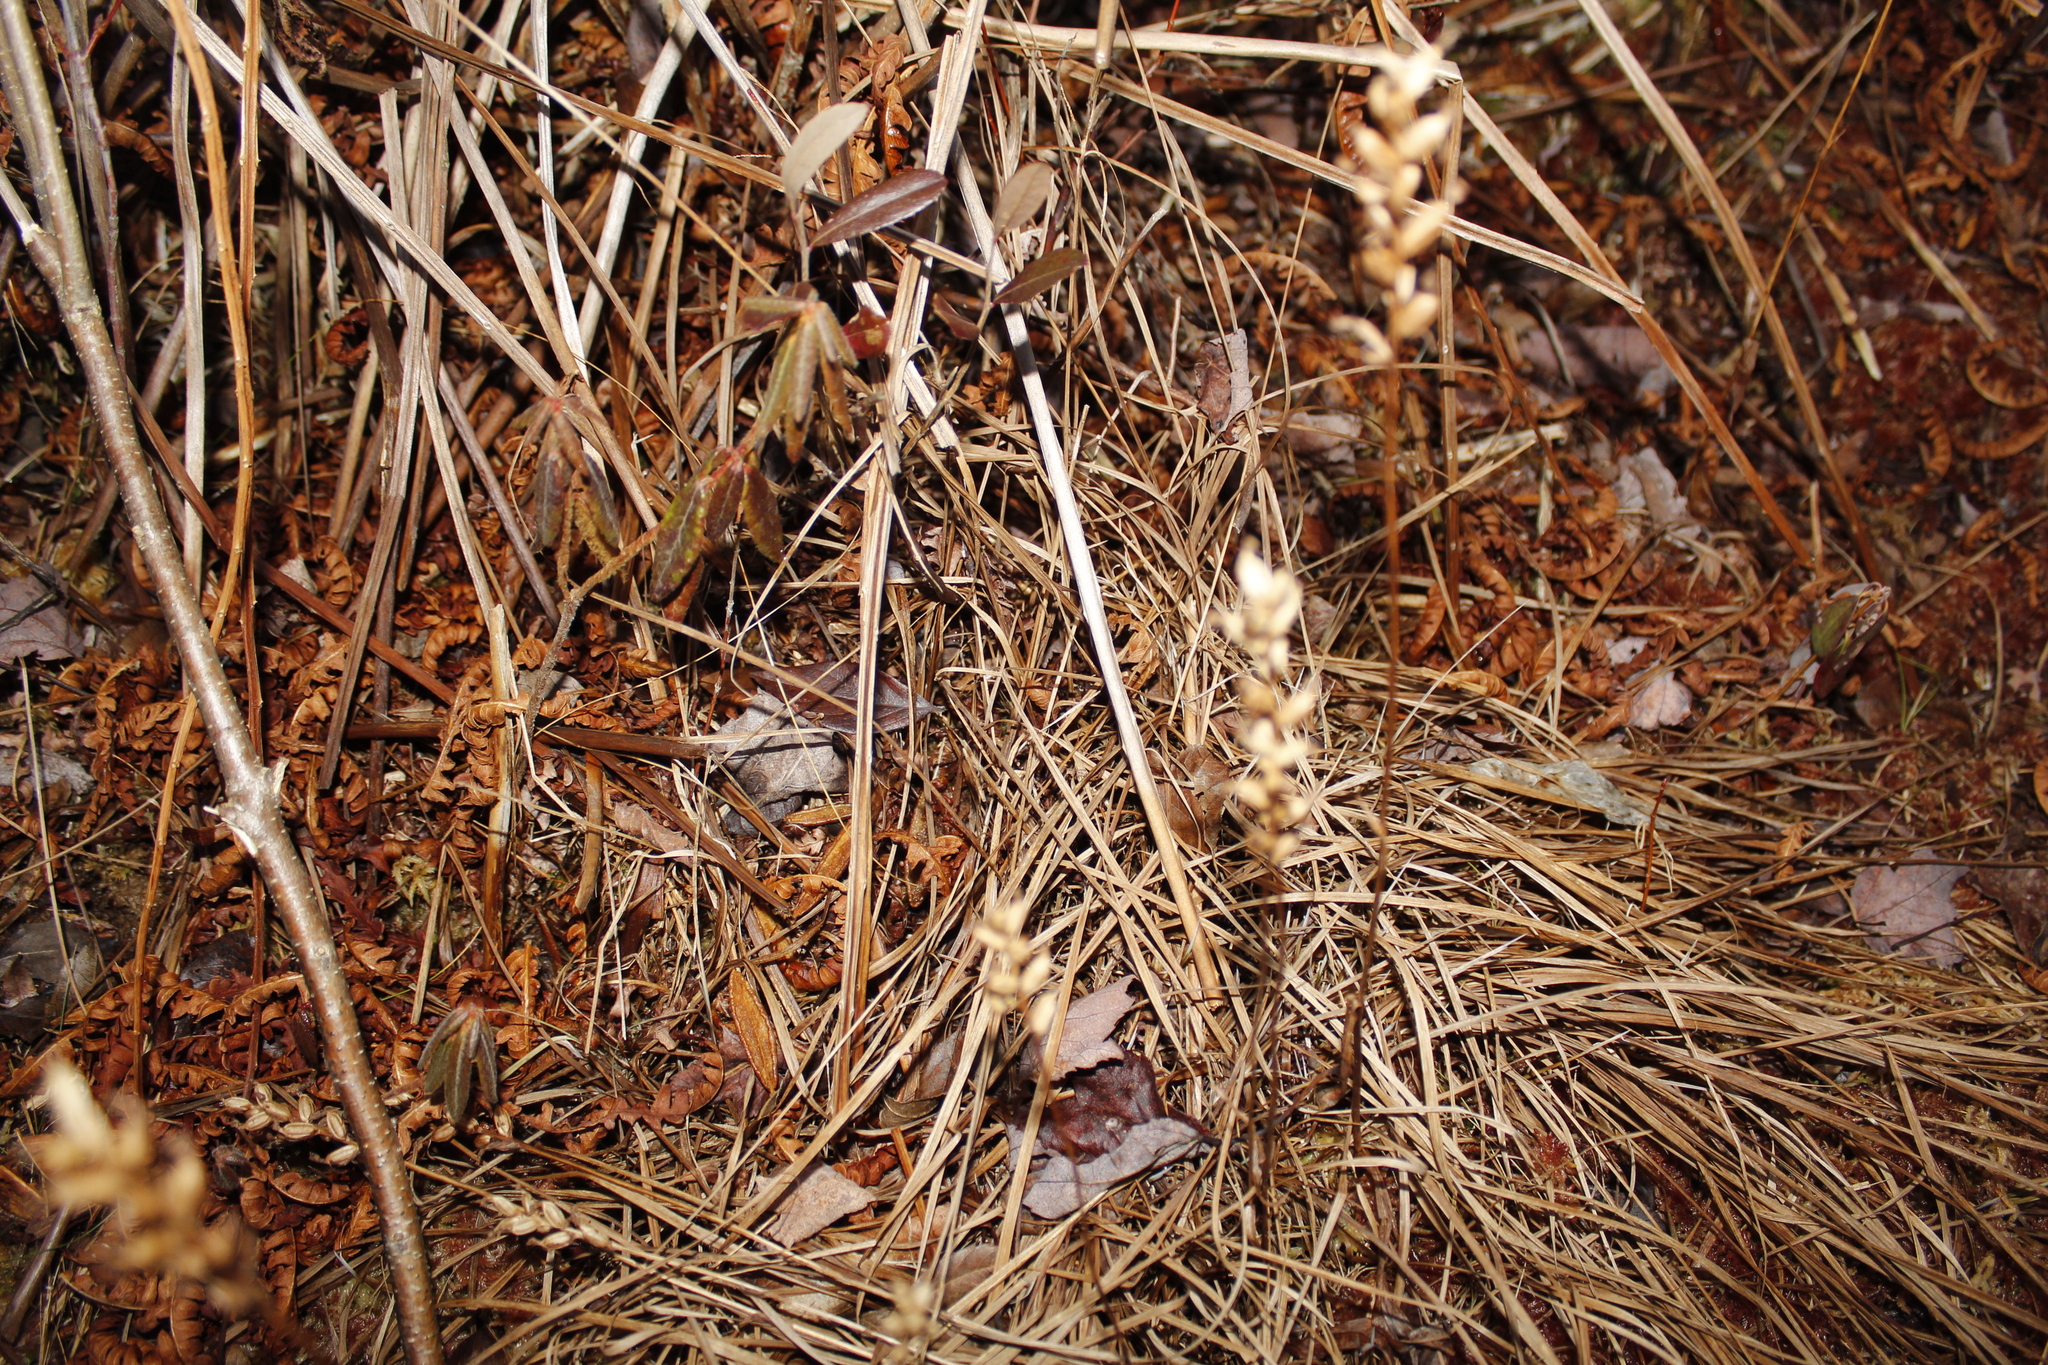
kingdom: Plantae
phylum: Tracheophyta
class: Liliopsida
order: Asparagales
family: Orchidaceae
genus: Platanthera
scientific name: Platanthera clavellata
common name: Club-spur orchid
